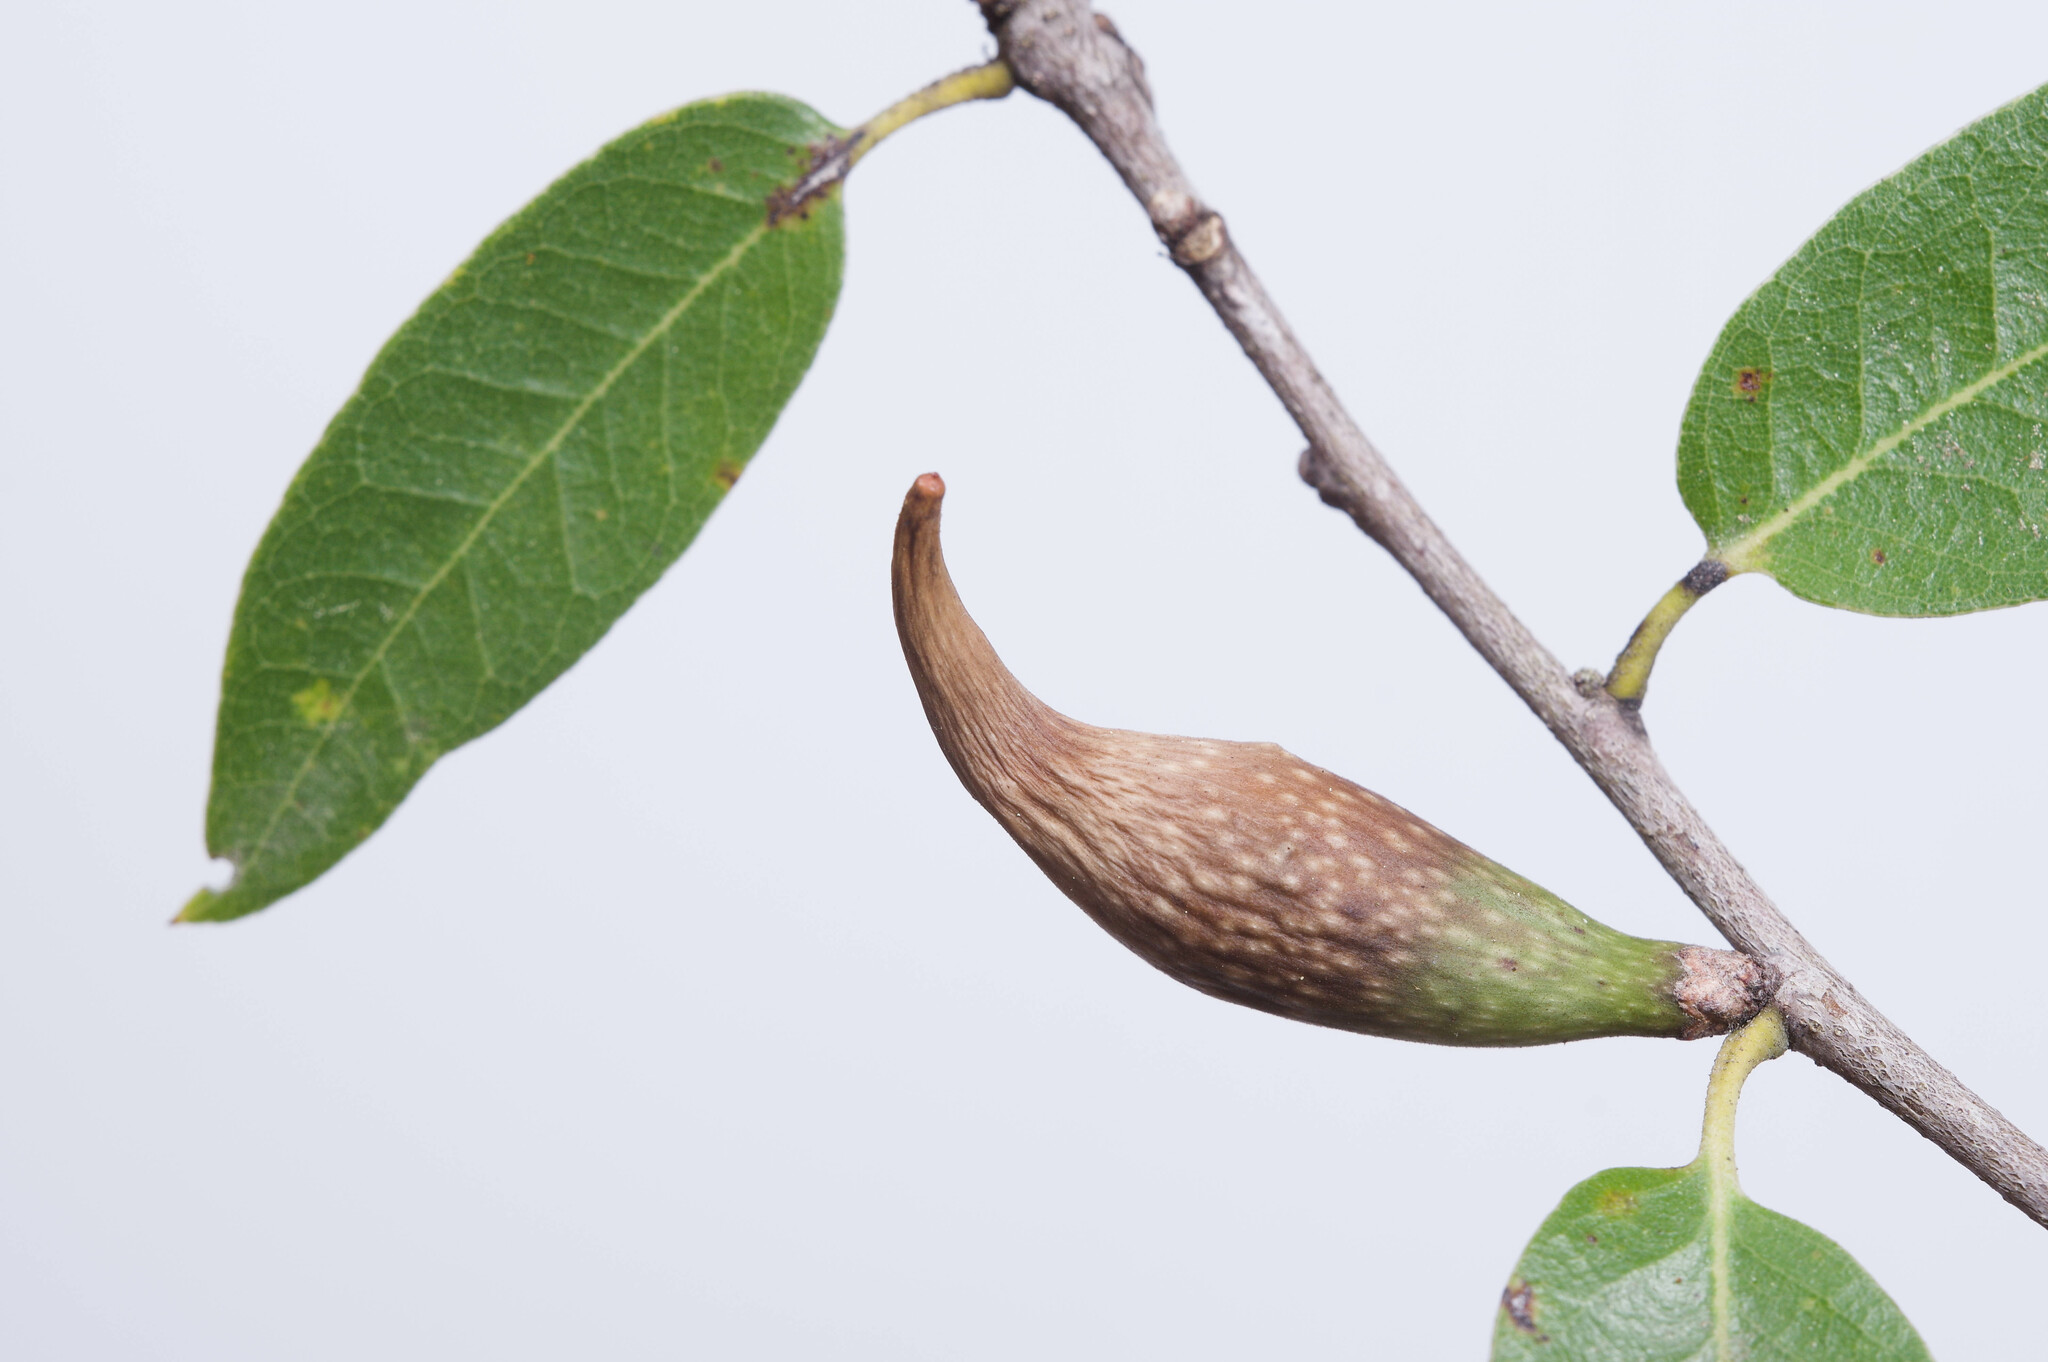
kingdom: Animalia
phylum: Arthropoda
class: Insecta
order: Hymenoptera
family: Cynipidae
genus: Heteroecus
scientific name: Heteroecus pacificus
